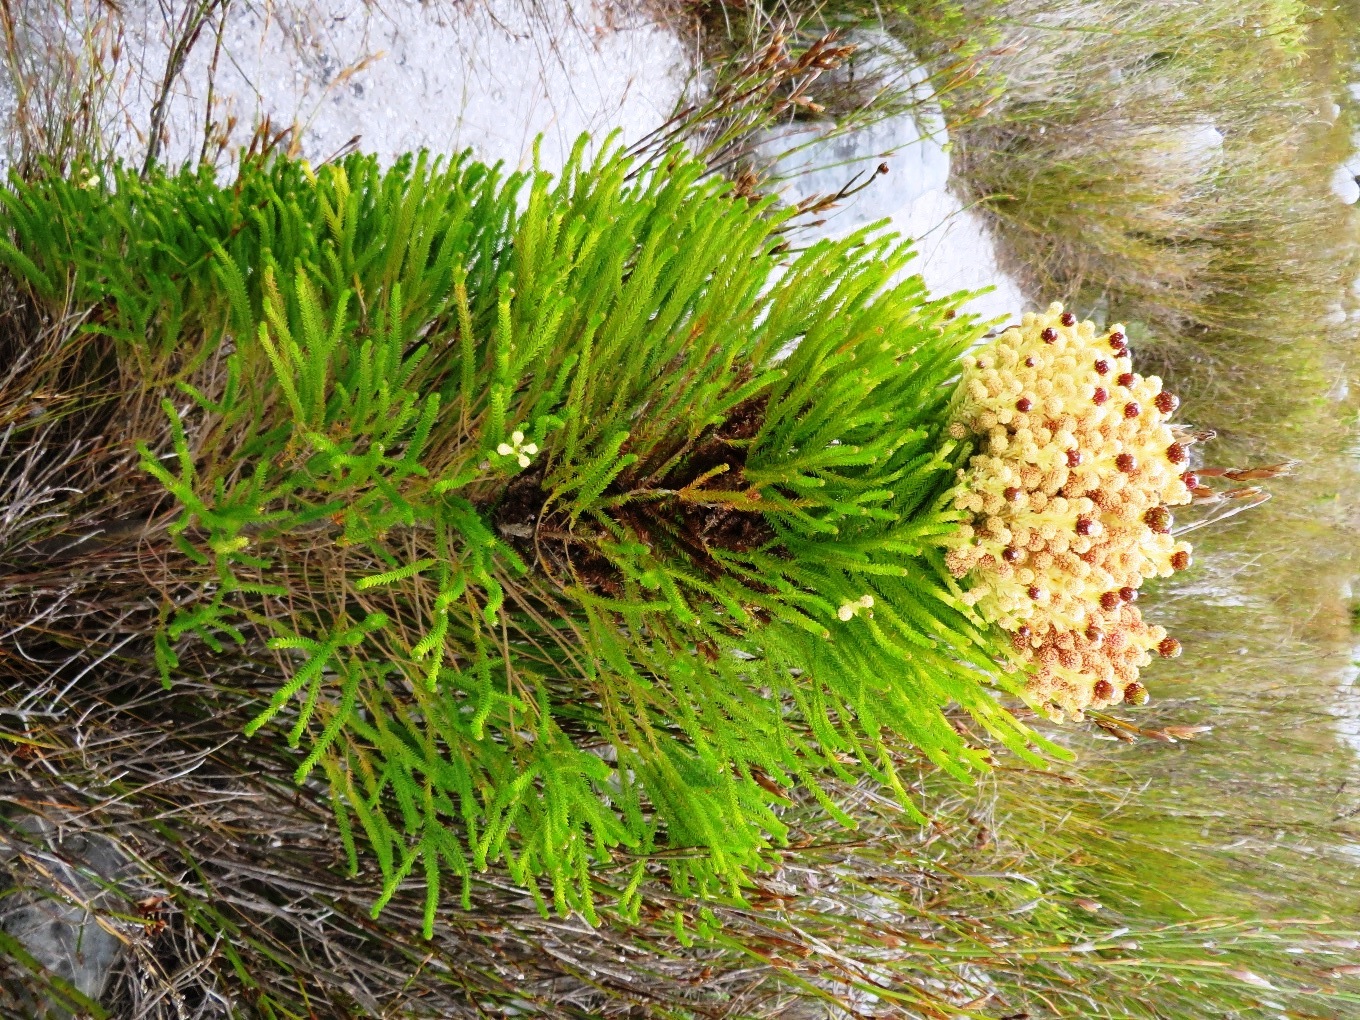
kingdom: Plantae
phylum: Tracheophyta
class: Magnoliopsida
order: Bruniales
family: Bruniaceae
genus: Berzelia
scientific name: Berzelia alopecurioides
